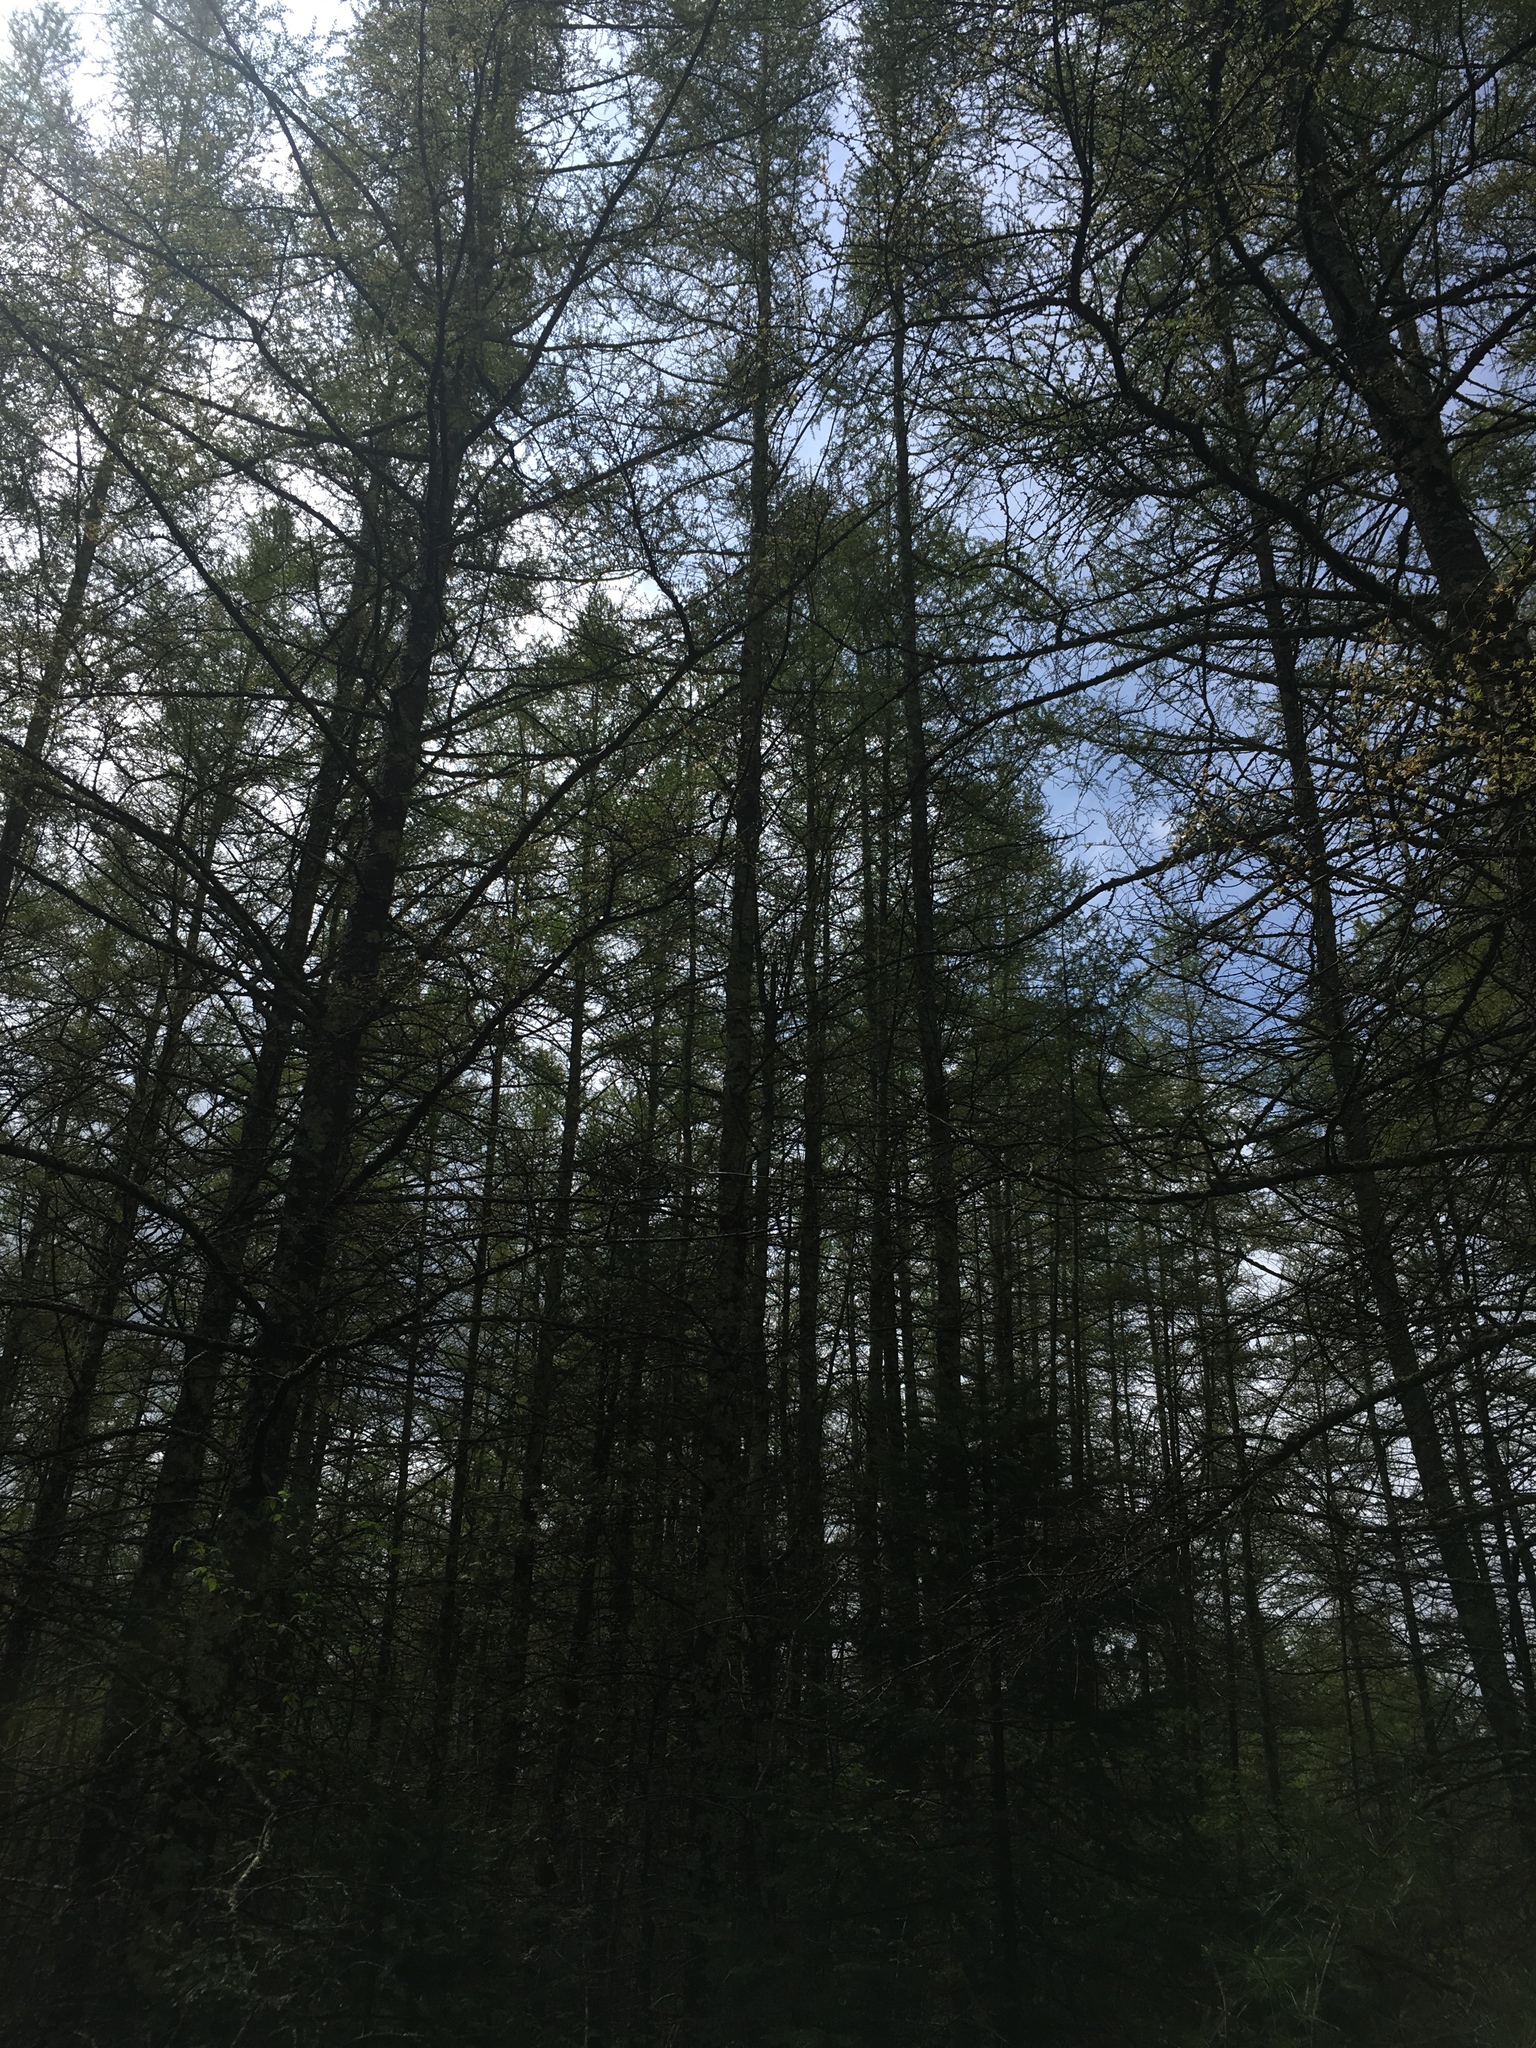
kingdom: Plantae
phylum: Tracheophyta
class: Pinopsida
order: Pinales
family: Pinaceae
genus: Larix
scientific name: Larix laricina
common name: American larch
